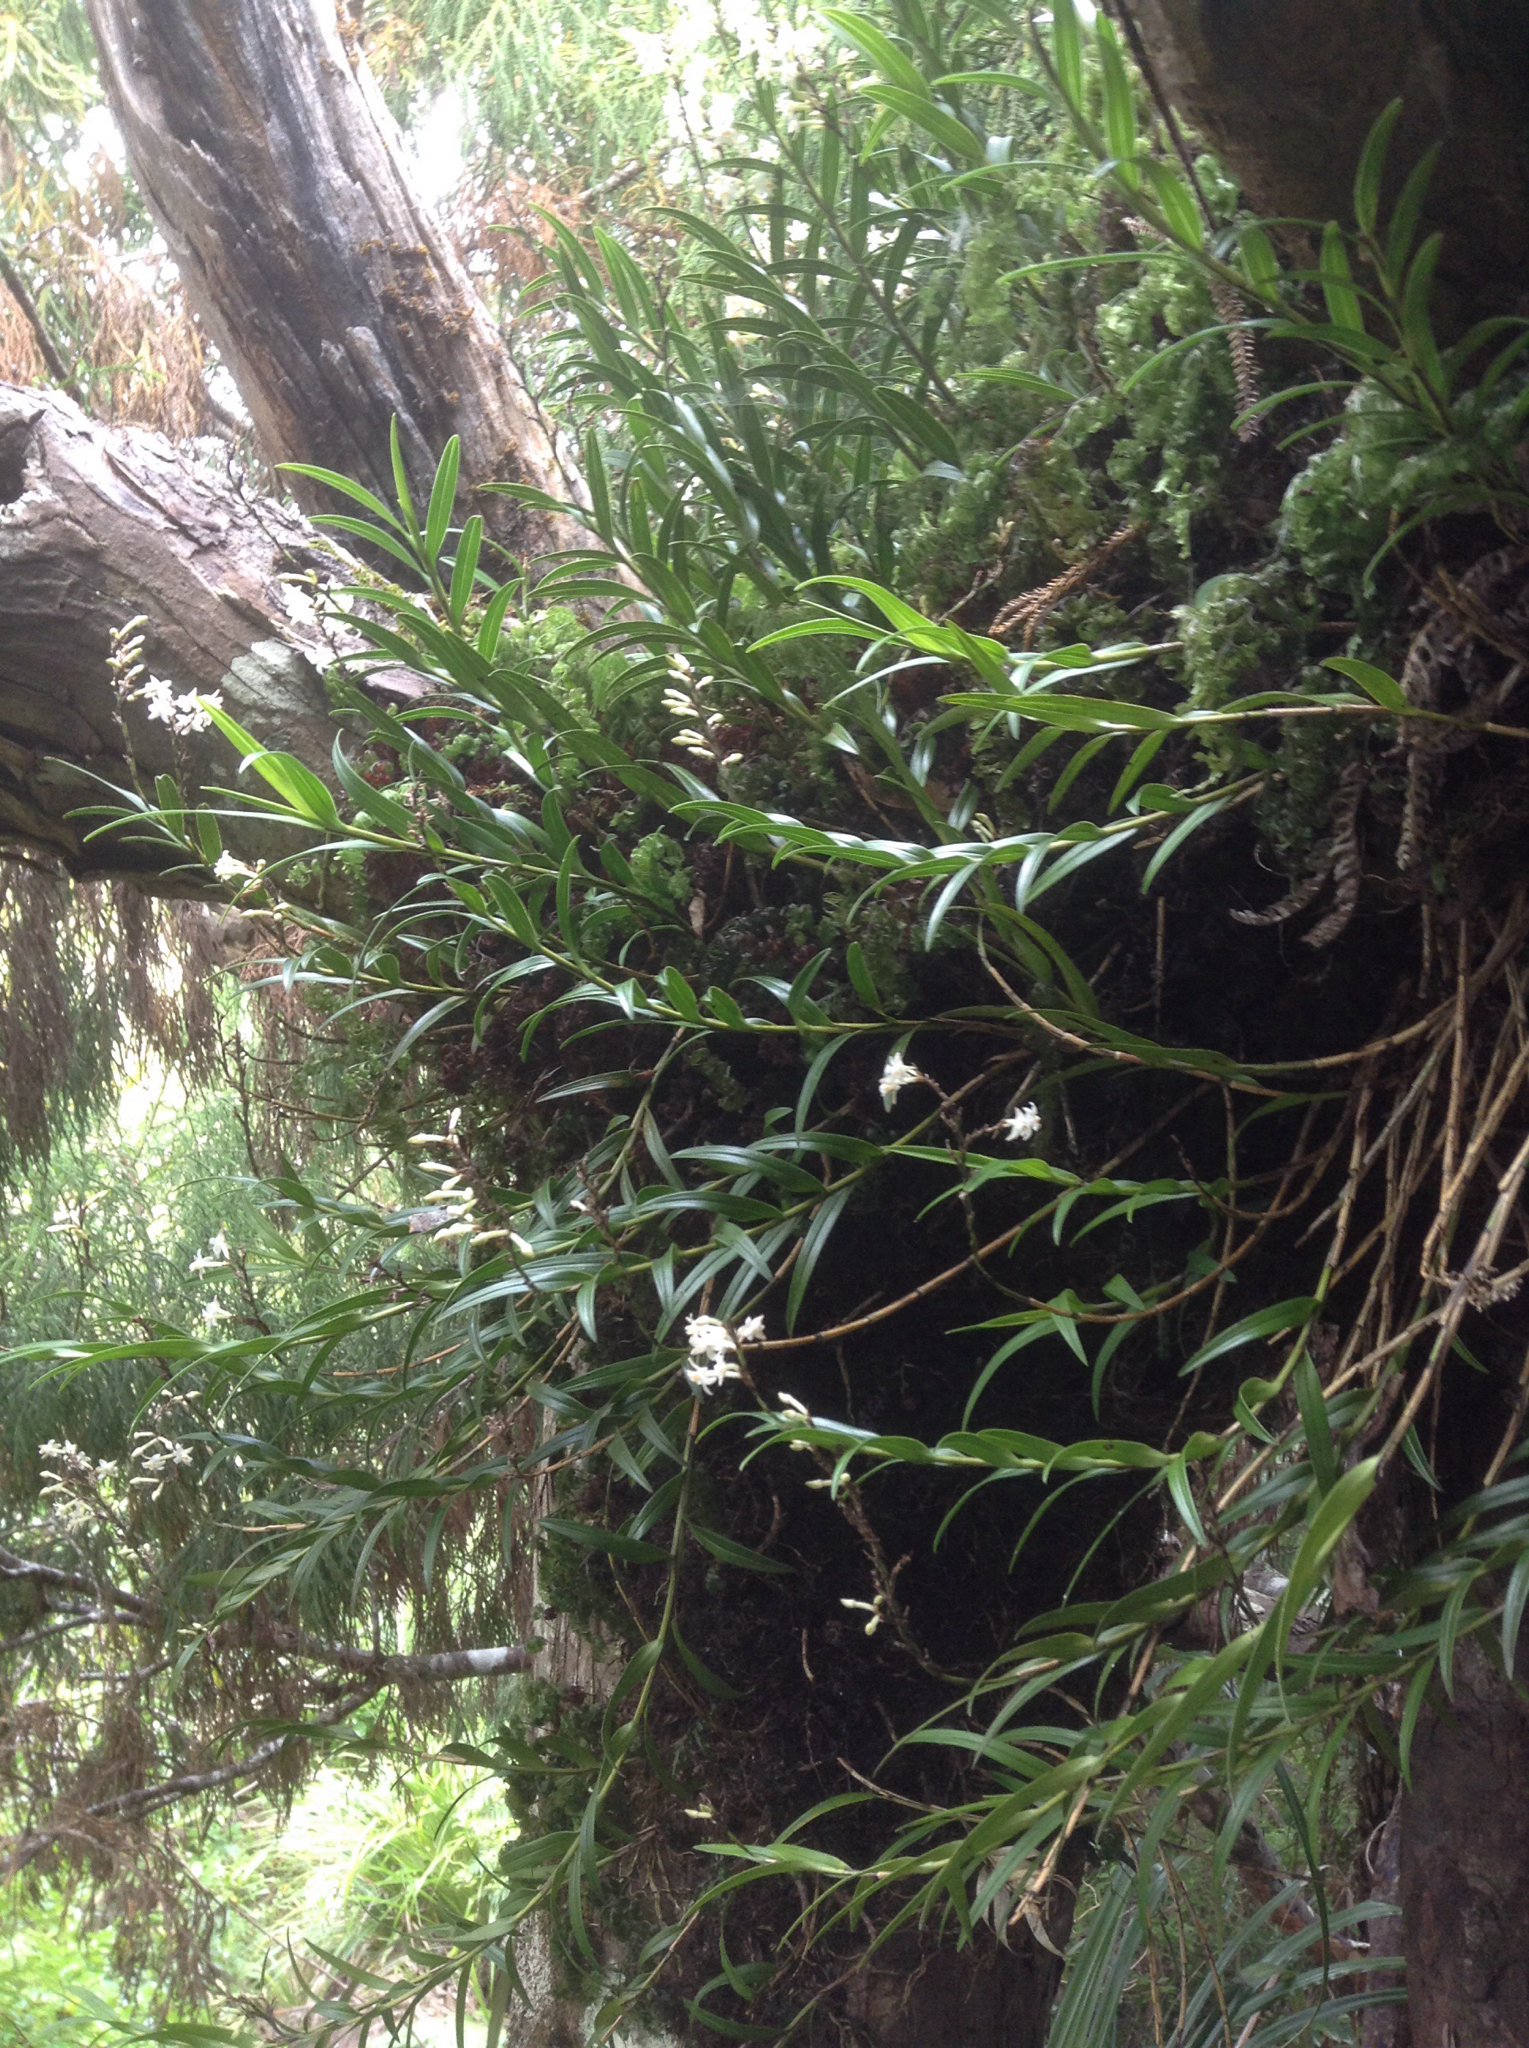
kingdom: Plantae
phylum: Tracheophyta
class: Liliopsida
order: Asparagales
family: Orchidaceae
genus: Earina
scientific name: Earina autumnalis
